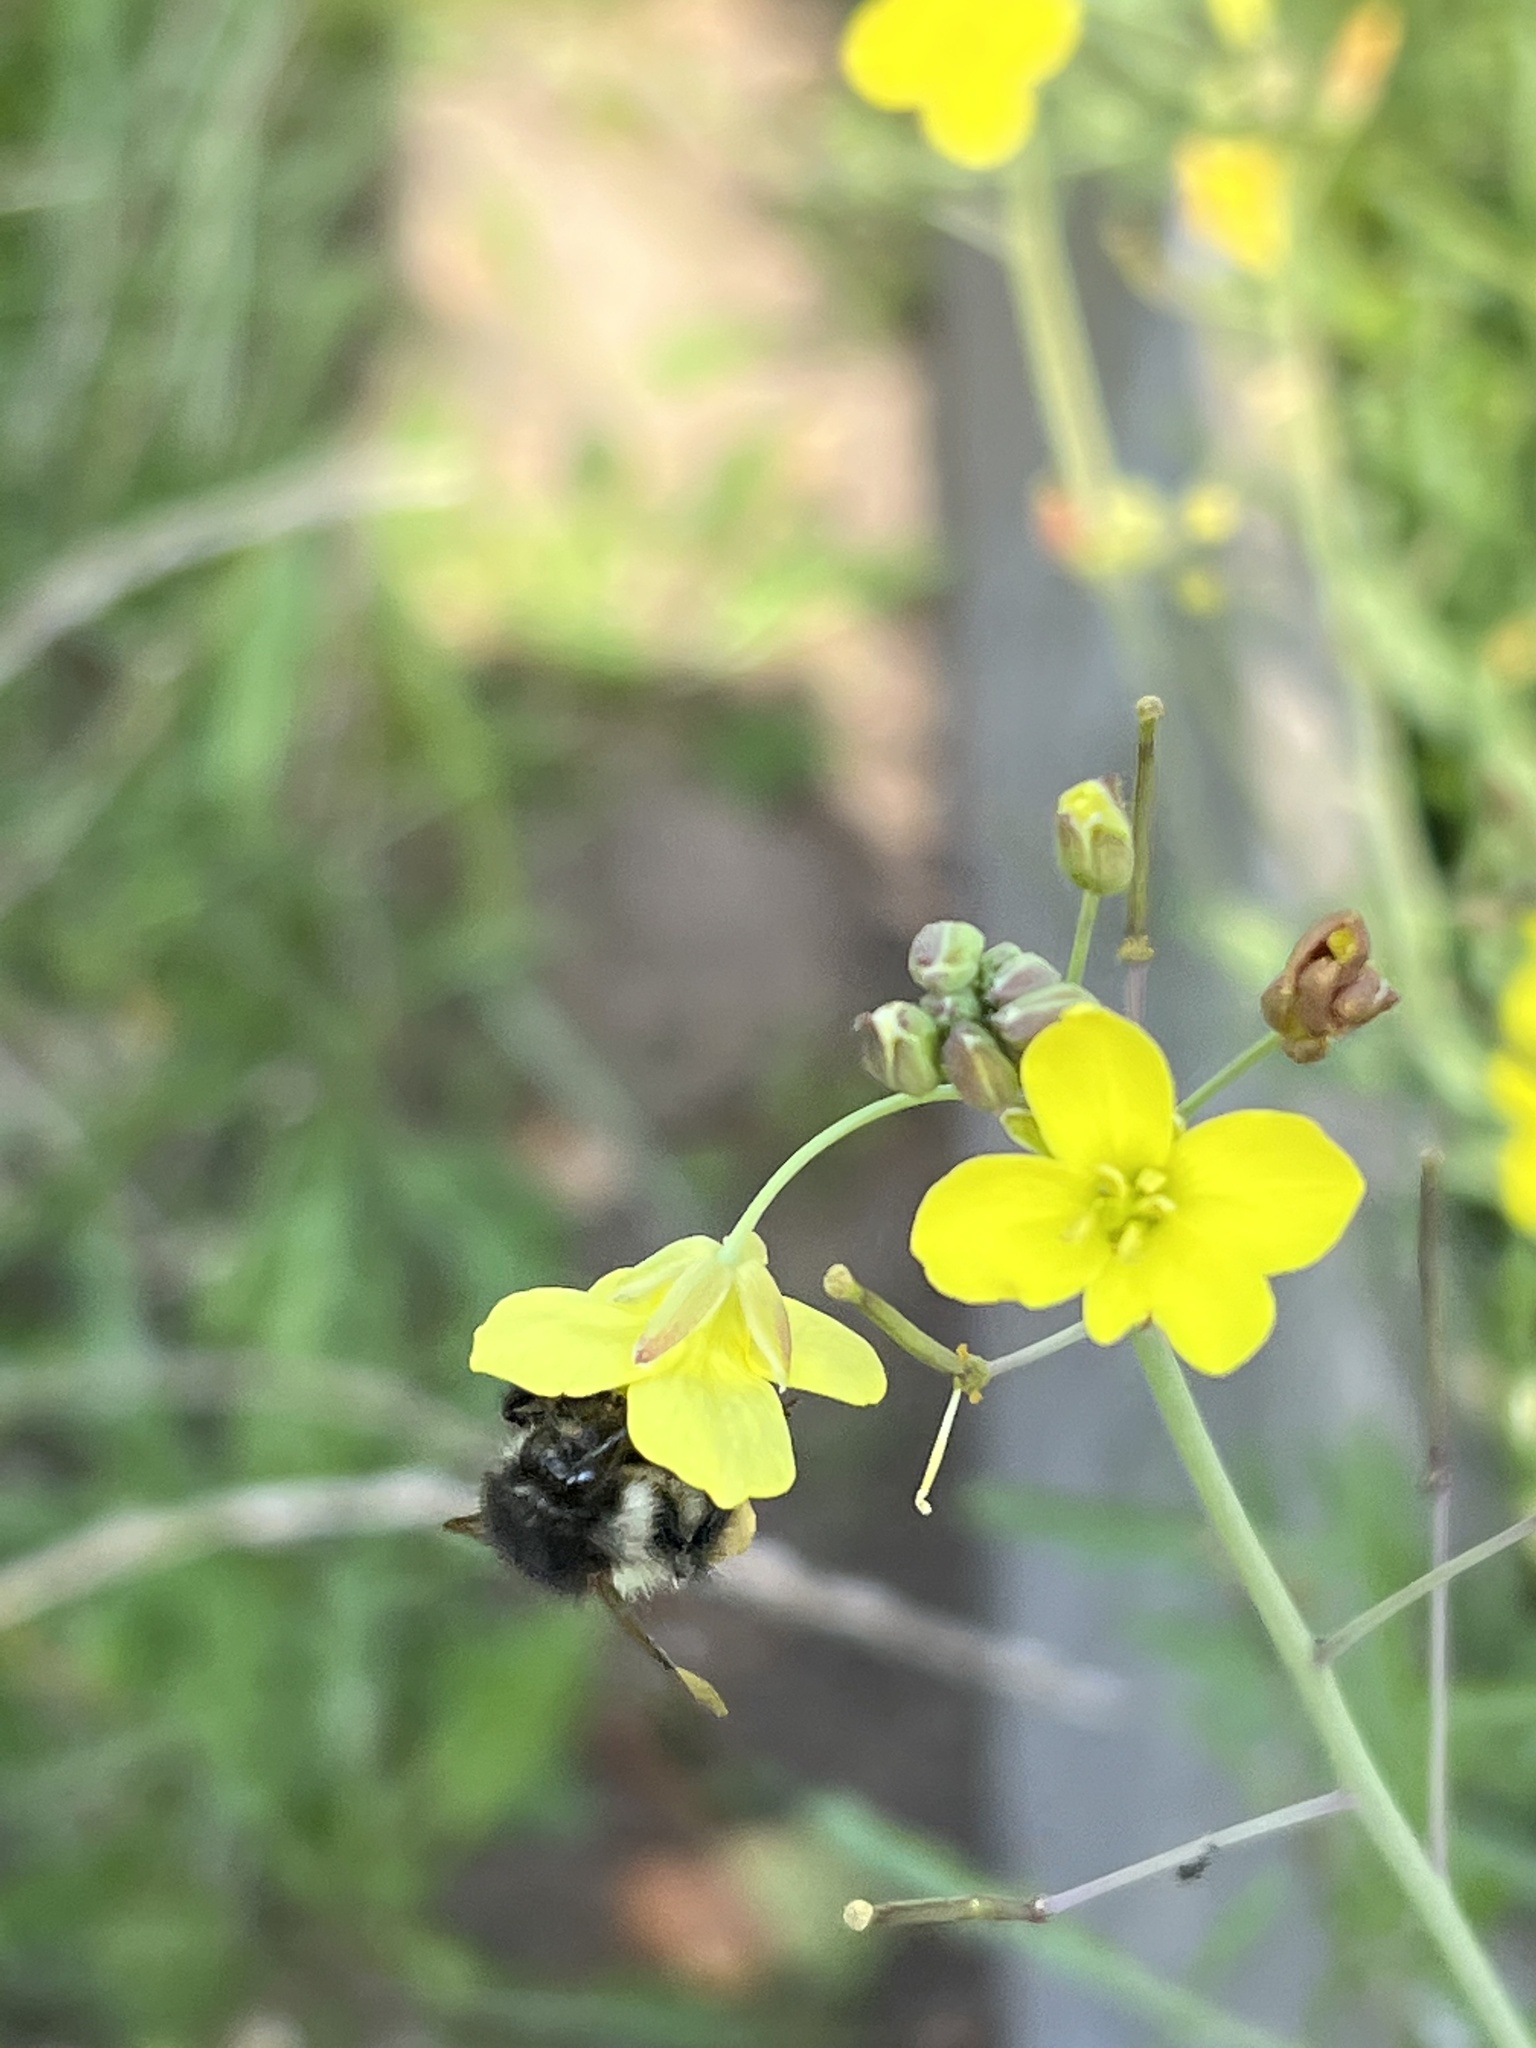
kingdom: Animalia
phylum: Arthropoda
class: Insecta
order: Hymenoptera
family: Apidae
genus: Bombus
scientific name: Bombus pascuorum
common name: Common carder bee
